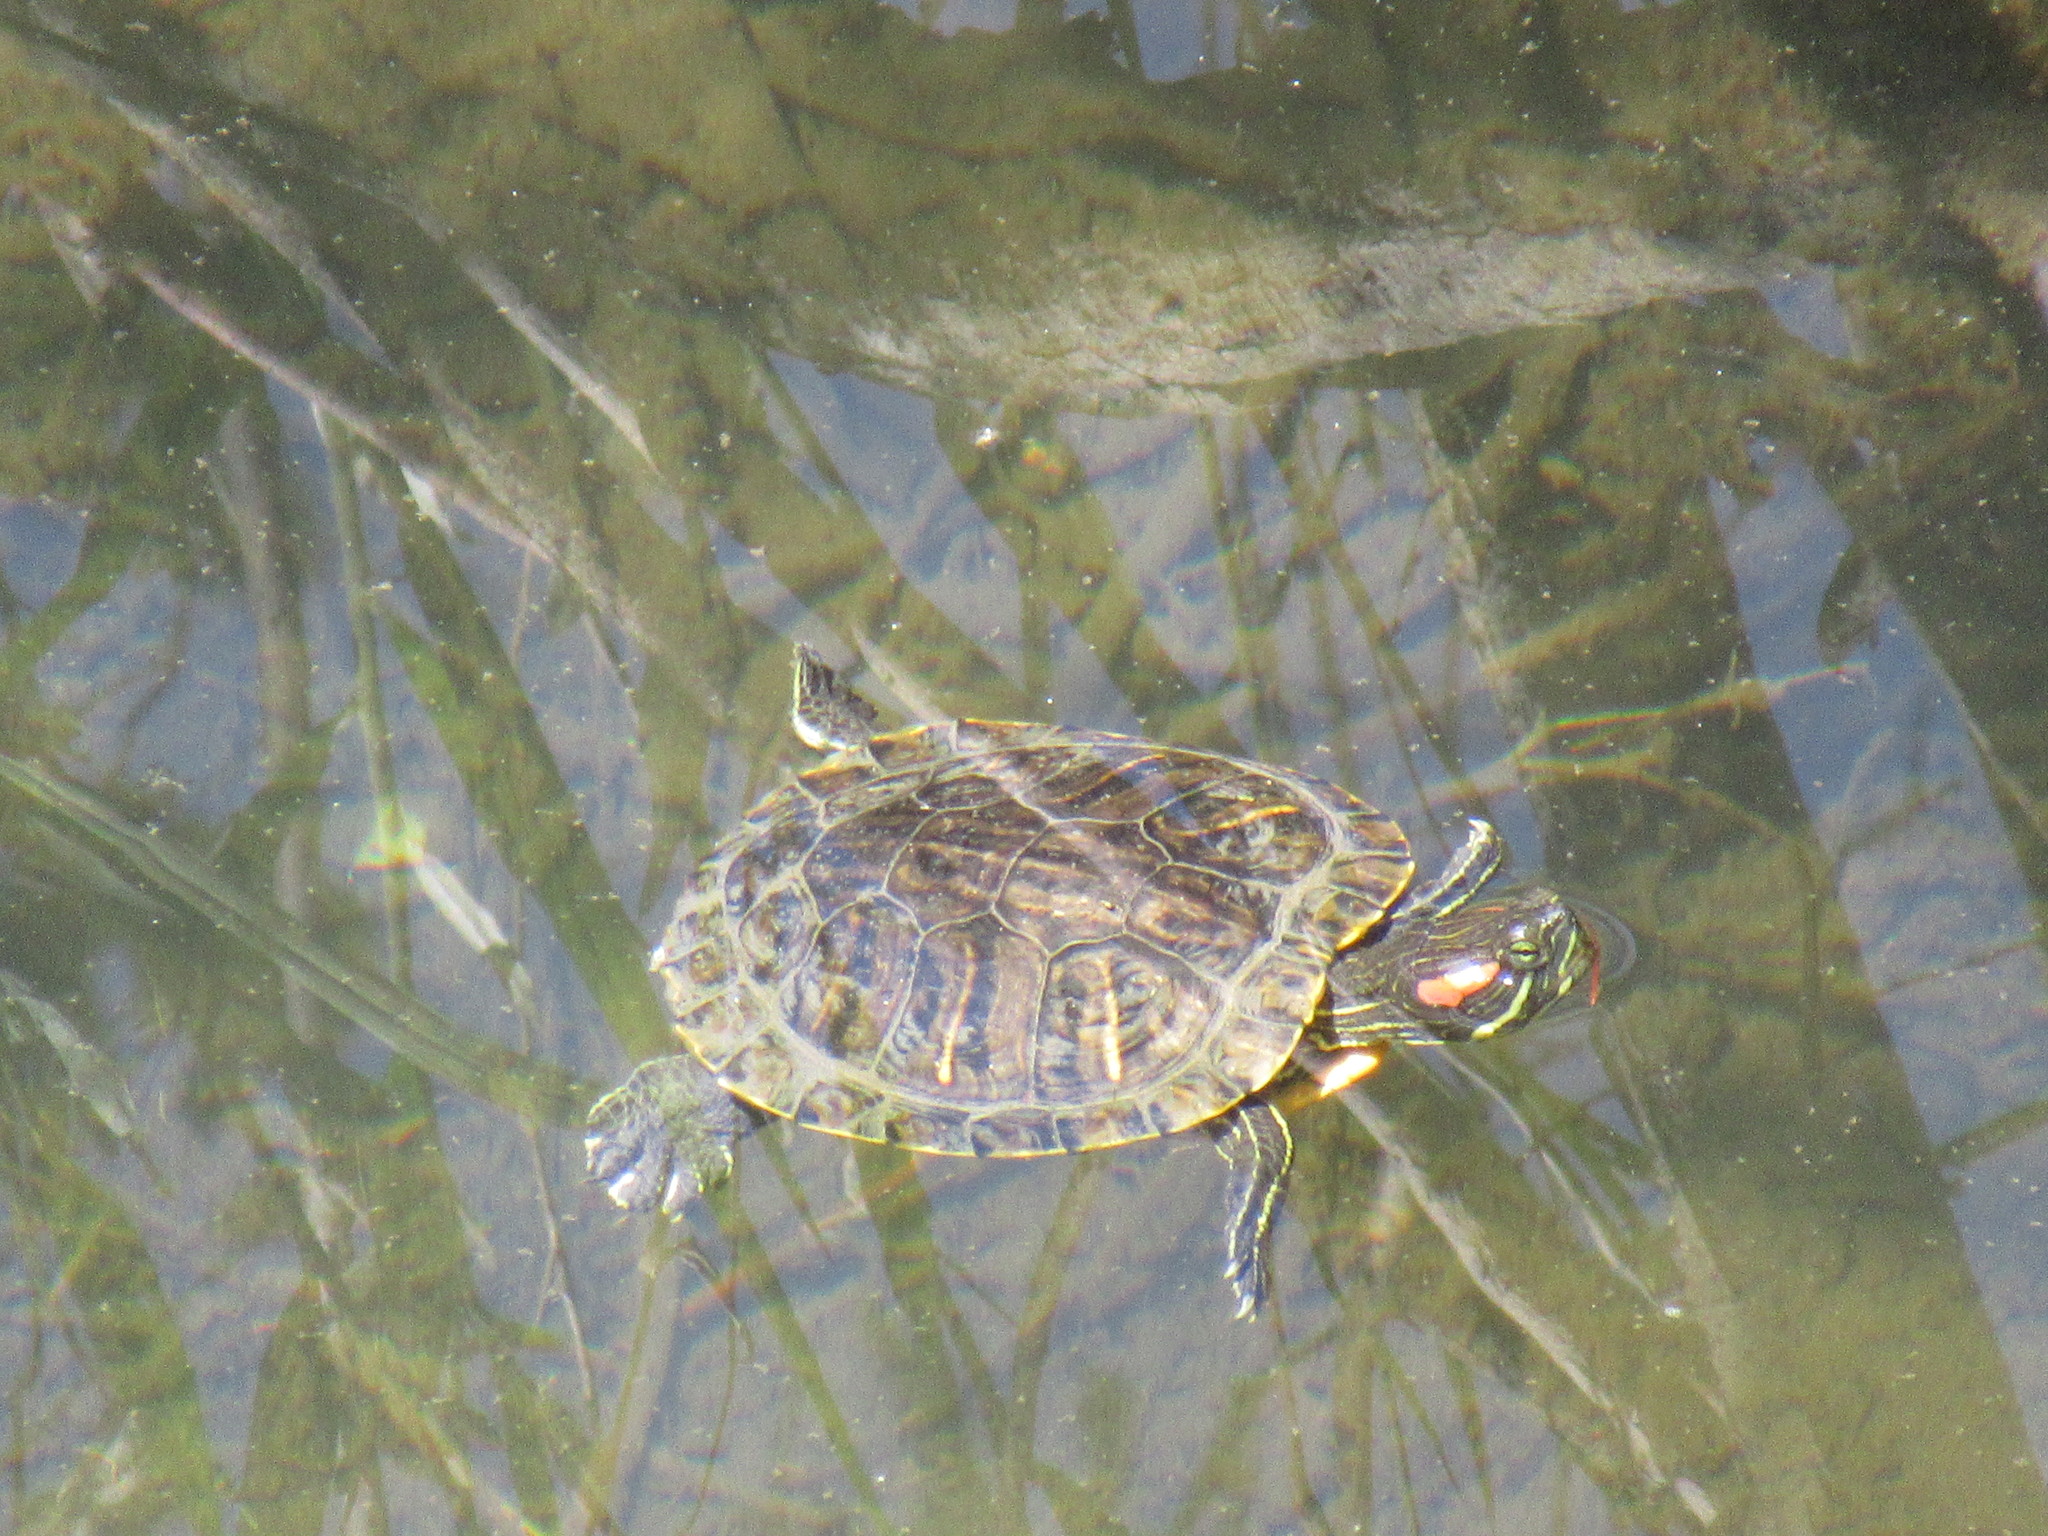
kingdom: Animalia
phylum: Chordata
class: Testudines
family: Emydidae
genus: Trachemys
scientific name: Trachemys scripta
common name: Slider
